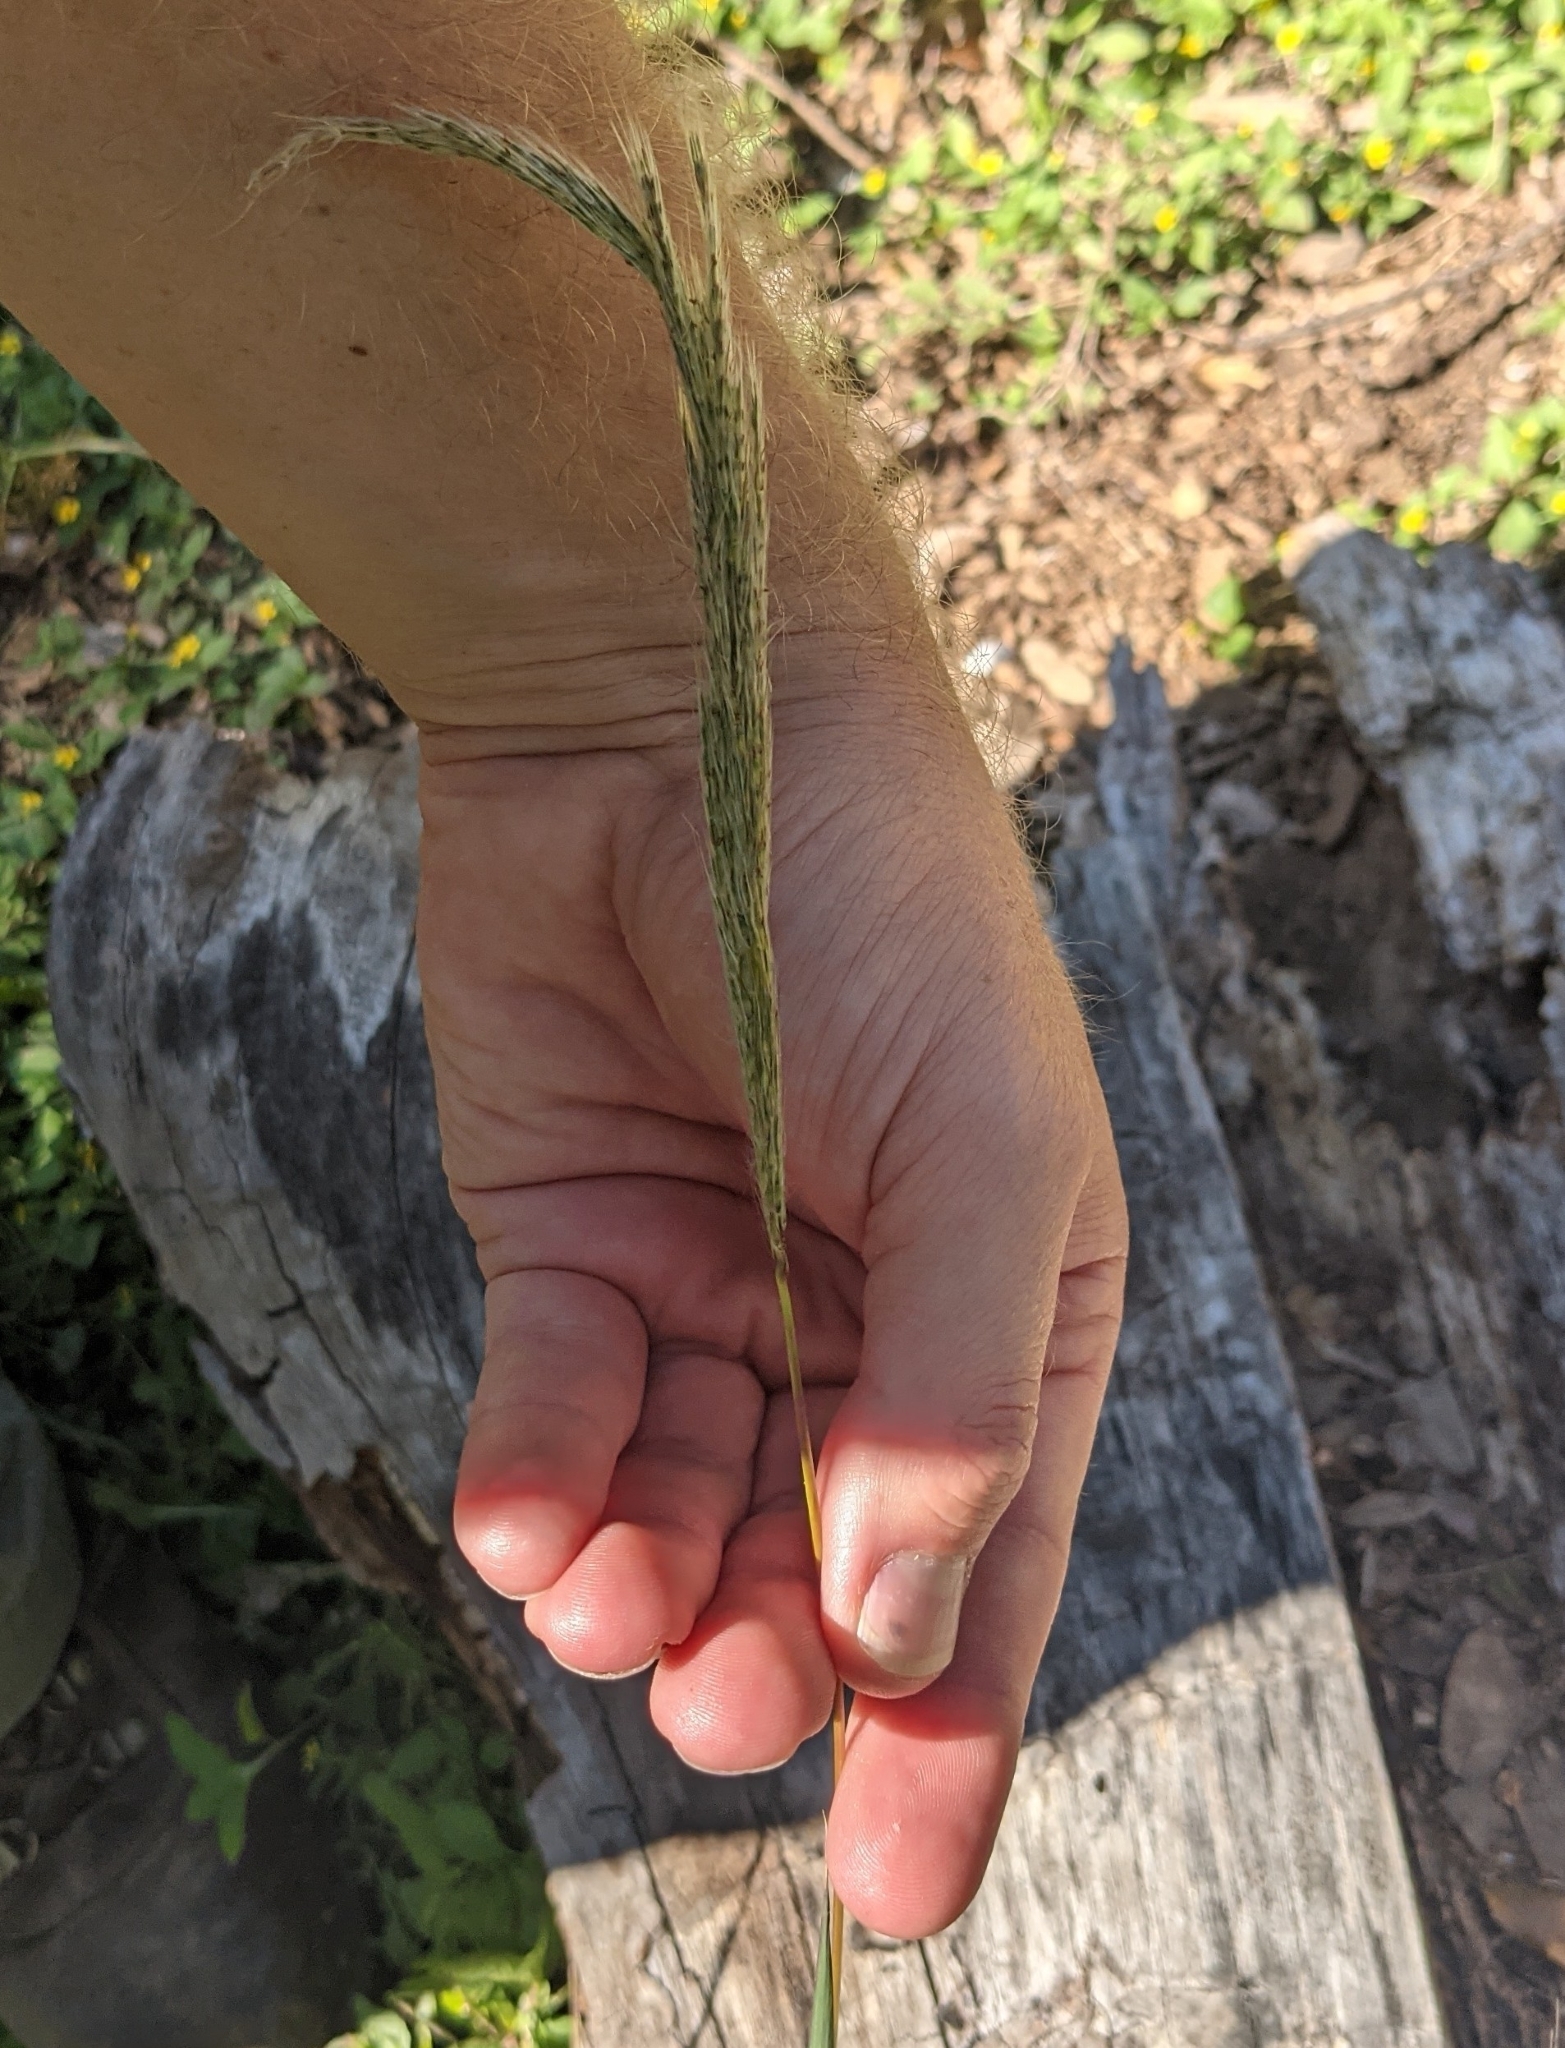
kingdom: Plantae
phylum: Tracheophyta
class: Liliopsida
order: Poales
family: Poaceae
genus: Bothriochloa
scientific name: Bothriochloa longipaniculata
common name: Longspike silver bluestem
